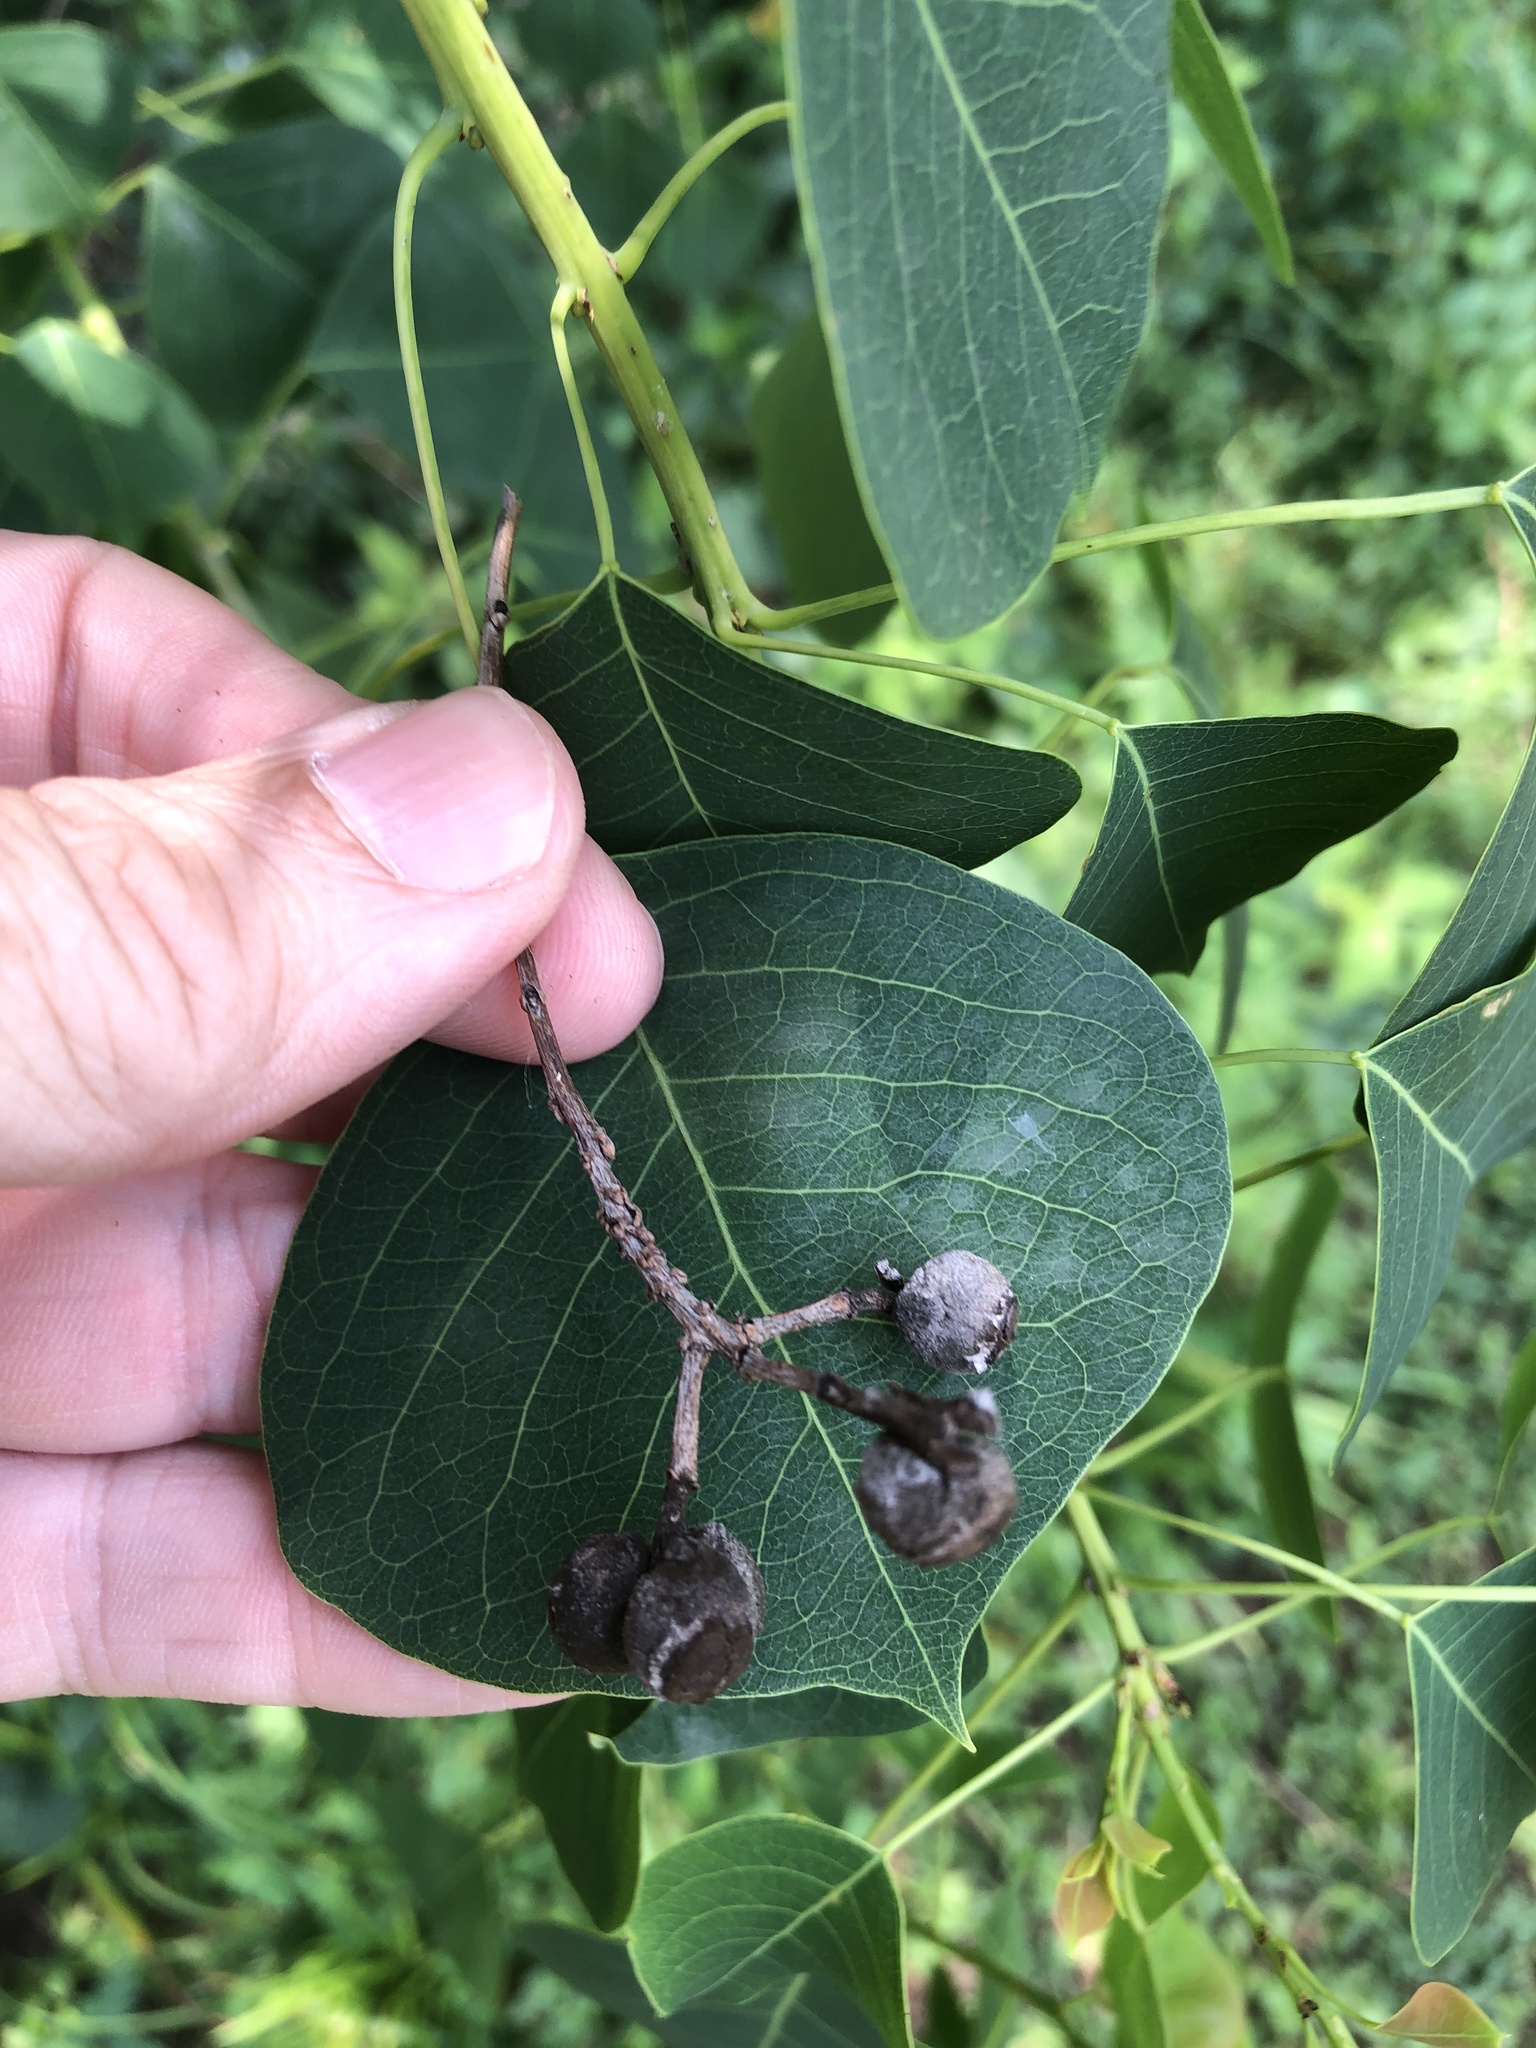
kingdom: Plantae
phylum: Tracheophyta
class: Magnoliopsida
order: Malpighiales
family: Euphorbiaceae
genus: Triadica
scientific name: Triadica sebifera
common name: Chinese tallow
